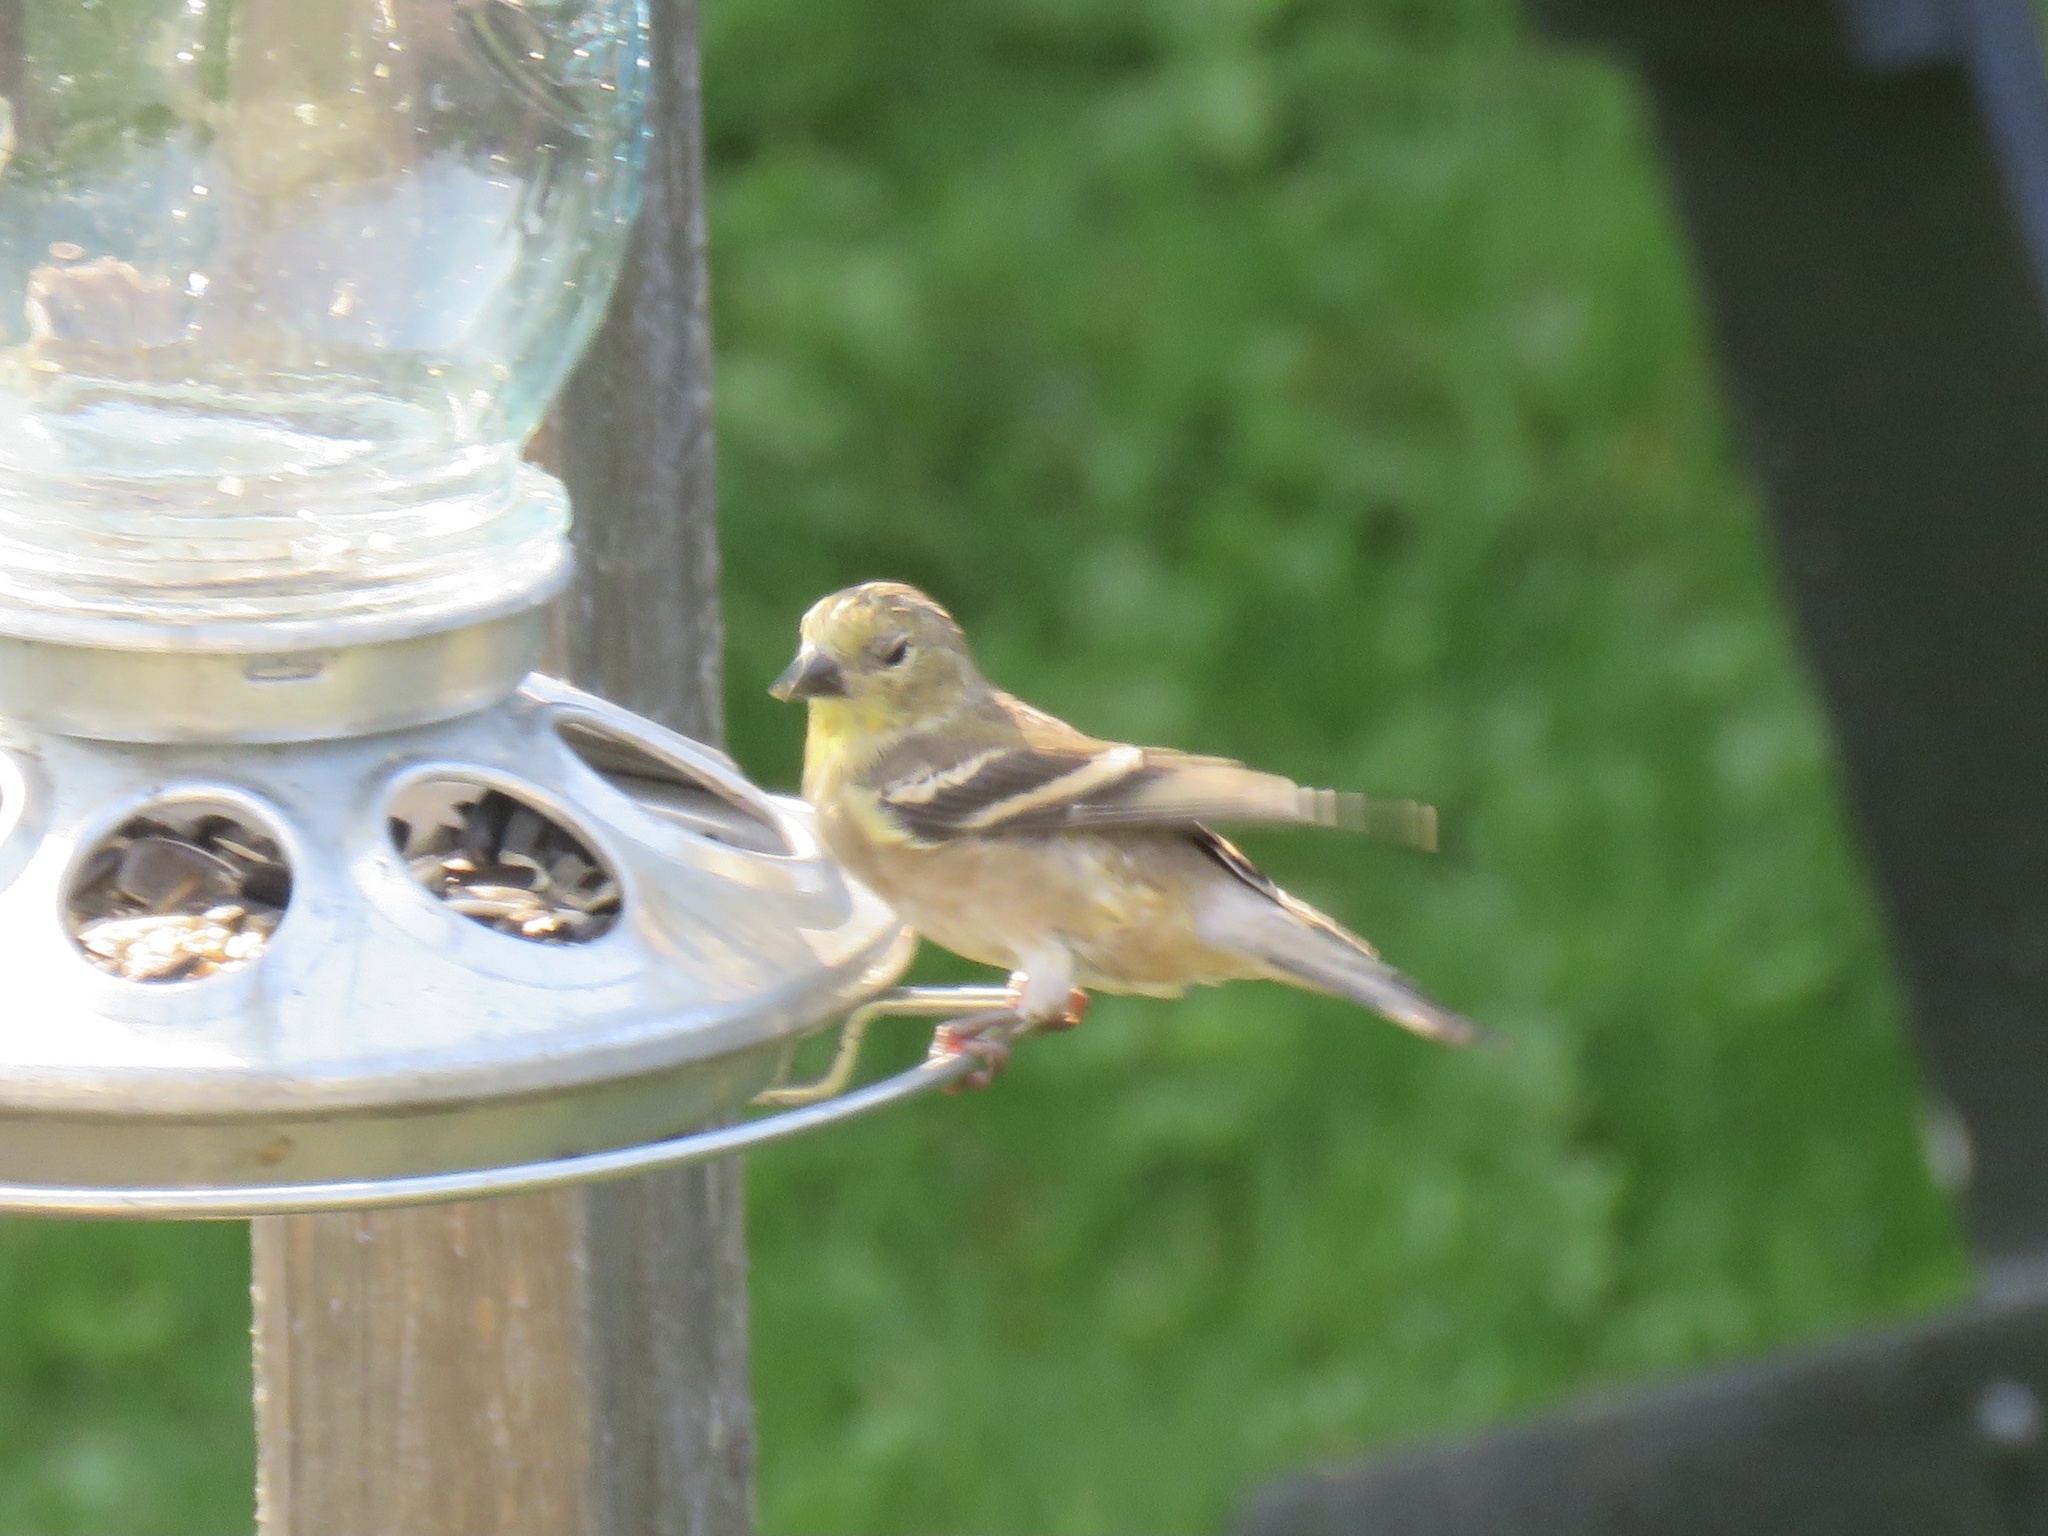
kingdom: Animalia
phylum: Chordata
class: Aves
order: Passeriformes
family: Fringillidae
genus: Spinus
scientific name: Spinus tristis
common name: American goldfinch
